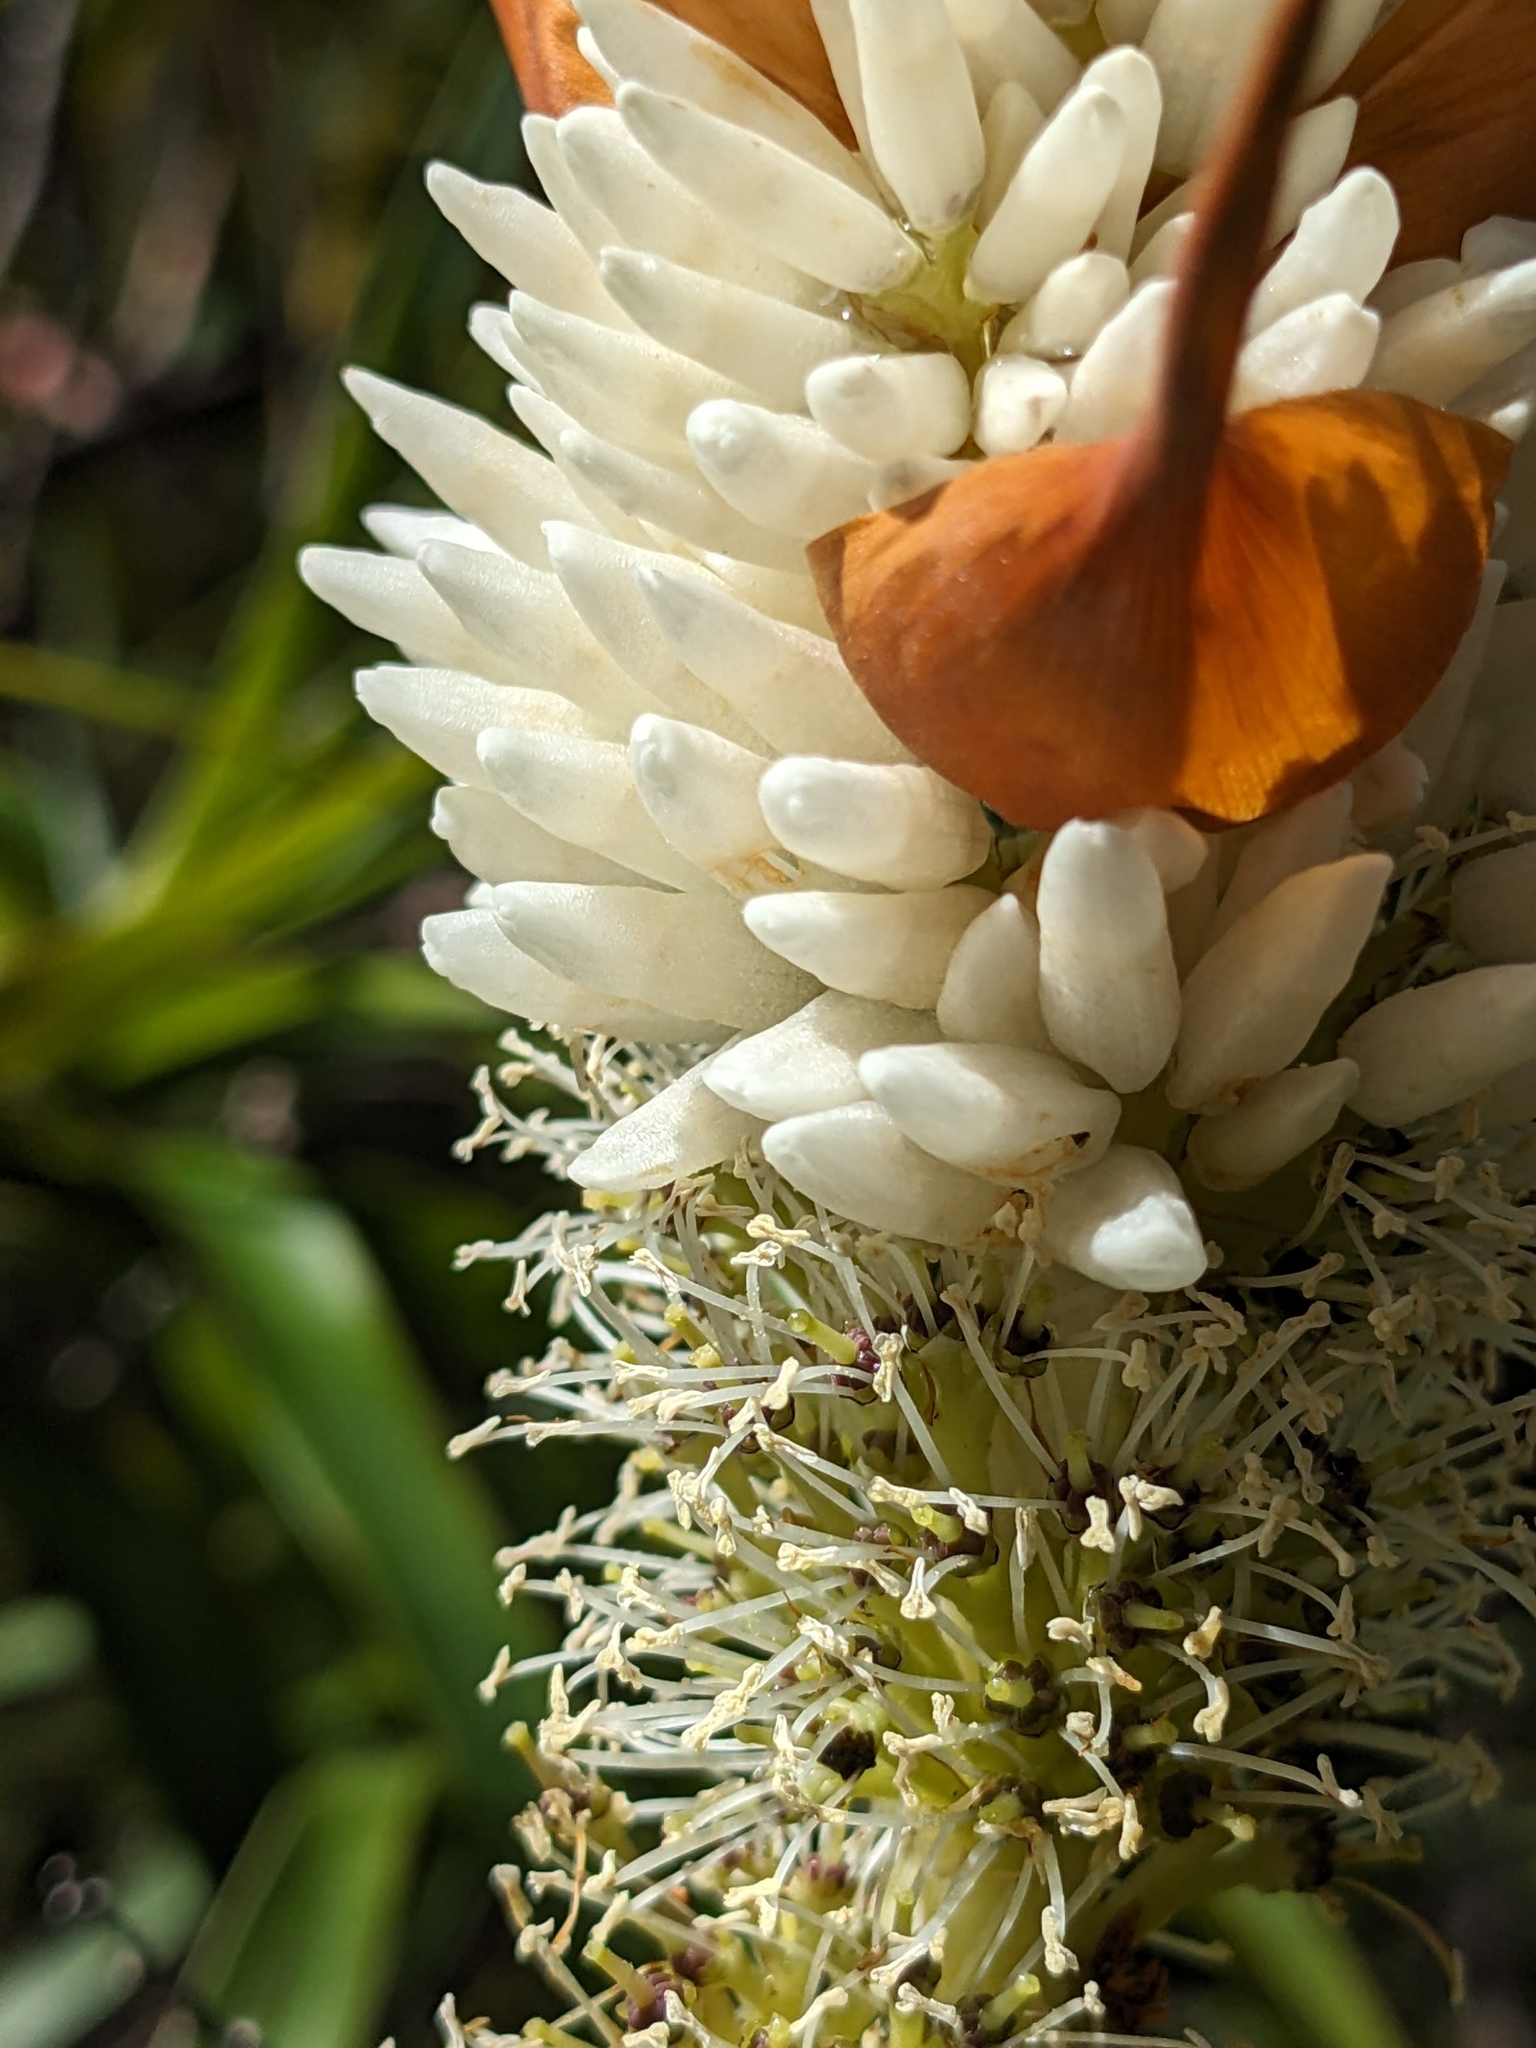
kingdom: Plantae
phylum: Tracheophyta
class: Magnoliopsida
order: Ericales
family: Ericaceae
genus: Dracophyllum
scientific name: Dracophyllum desgrazii
